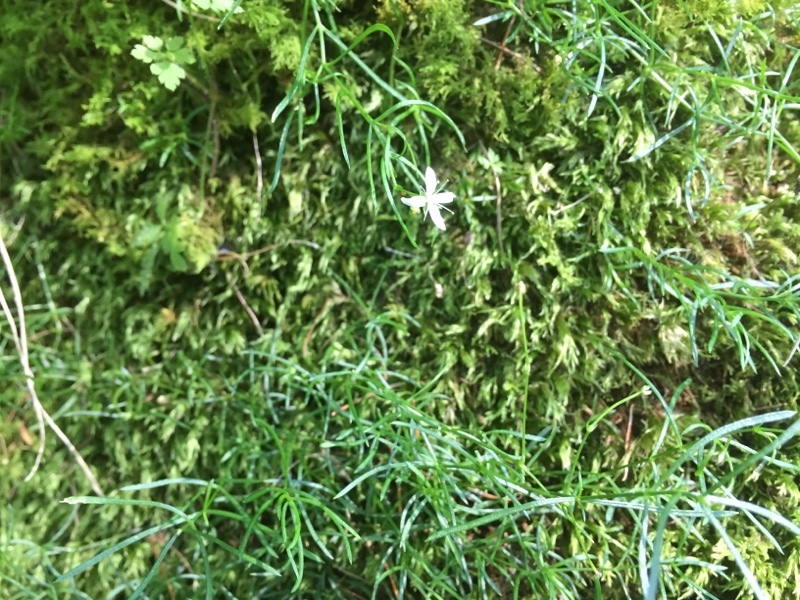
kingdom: Plantae
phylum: Tracheophyta
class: Magnoliopsida
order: Caryophyllales
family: Caryophyllaceae
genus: Moehringia
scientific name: Moehringia muscosa
